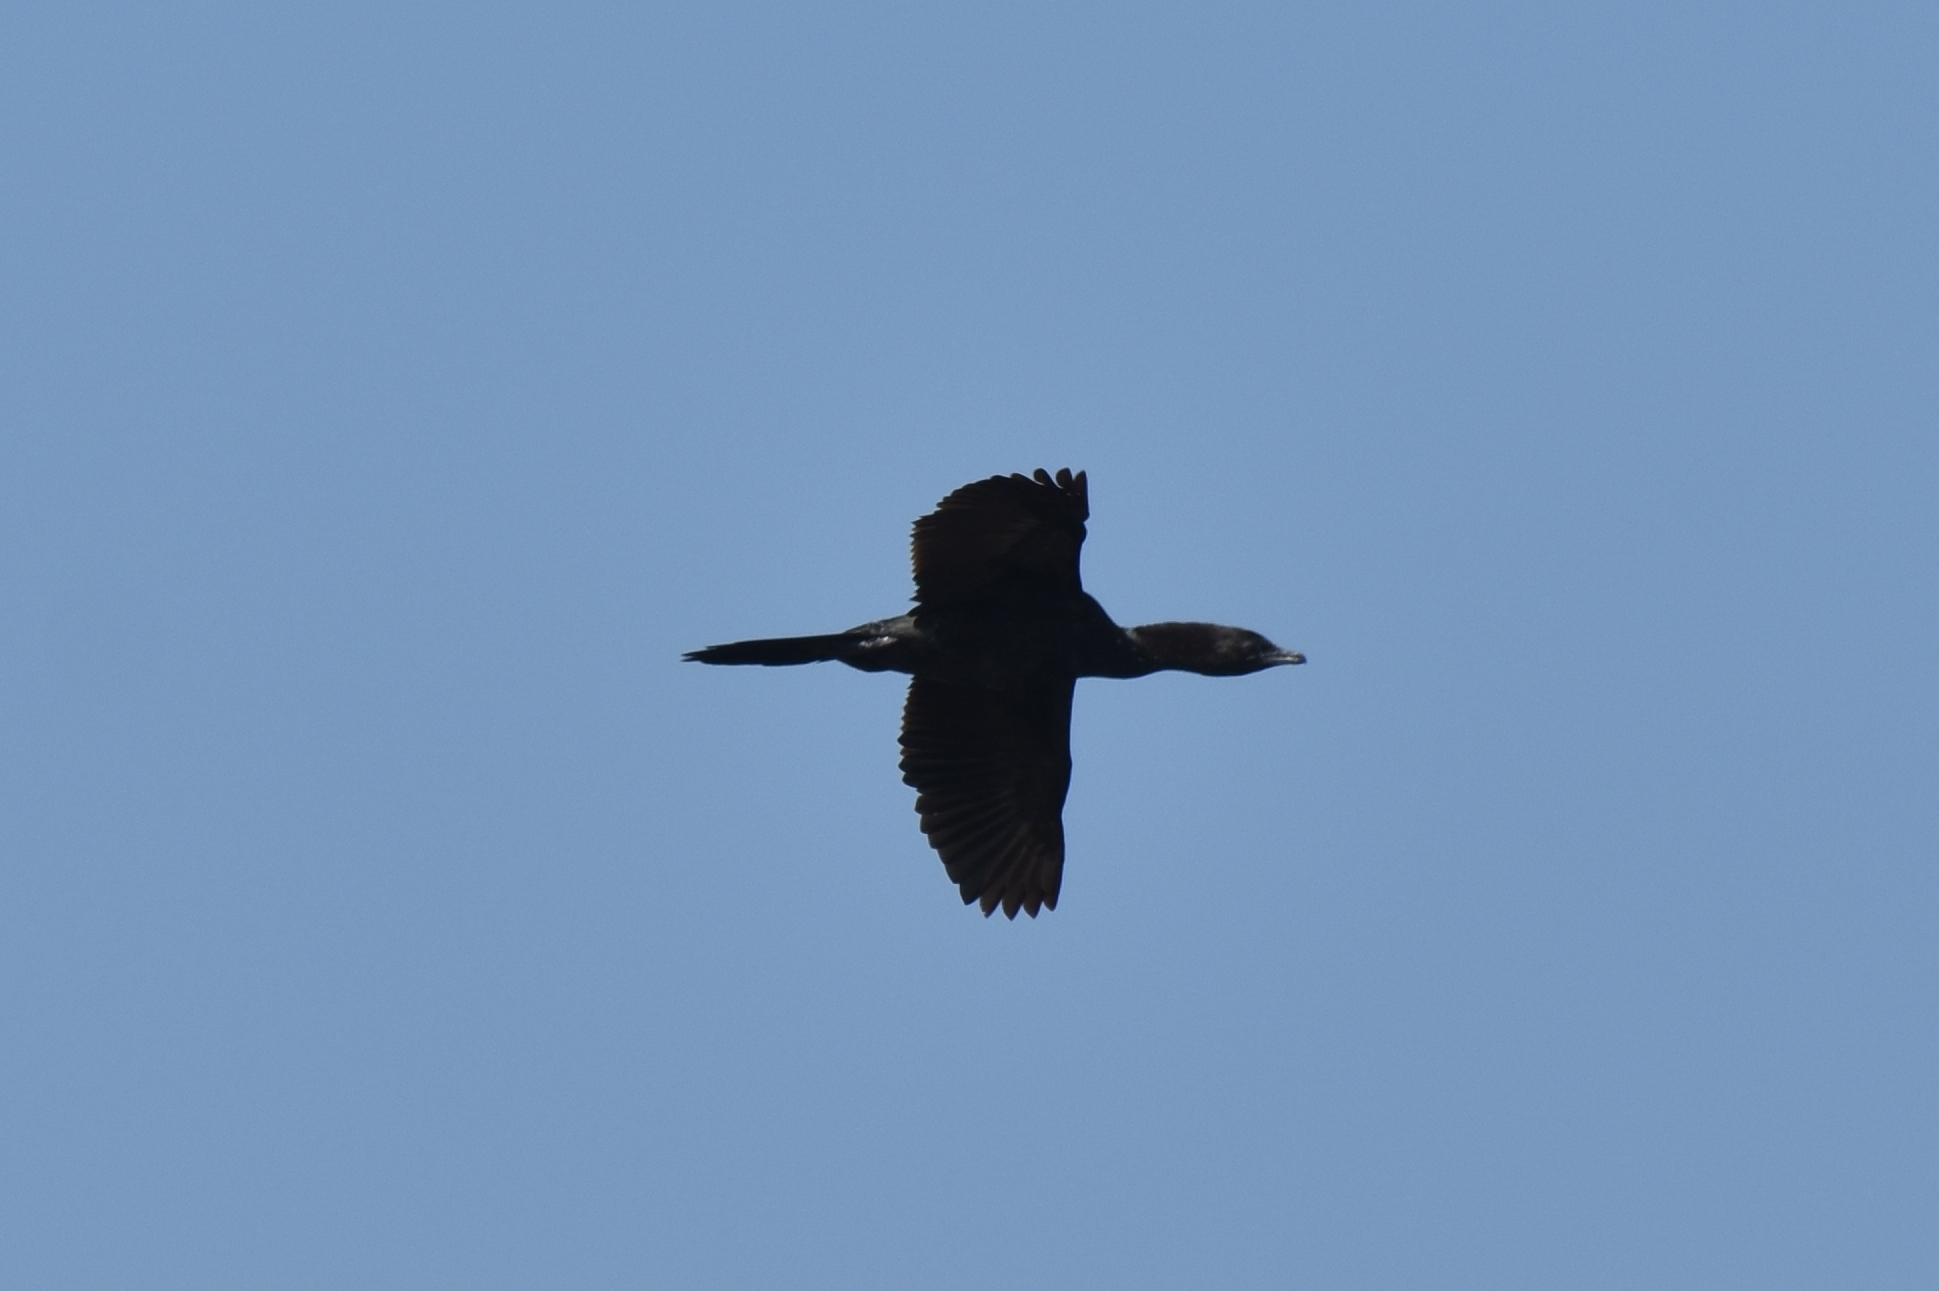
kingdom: Animalia
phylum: Chordata
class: Aves
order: Suliformes
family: Phalacrocoracidae
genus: Microcarbo
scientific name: Microcarbo pygmaeus
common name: Pygmy cormorant
